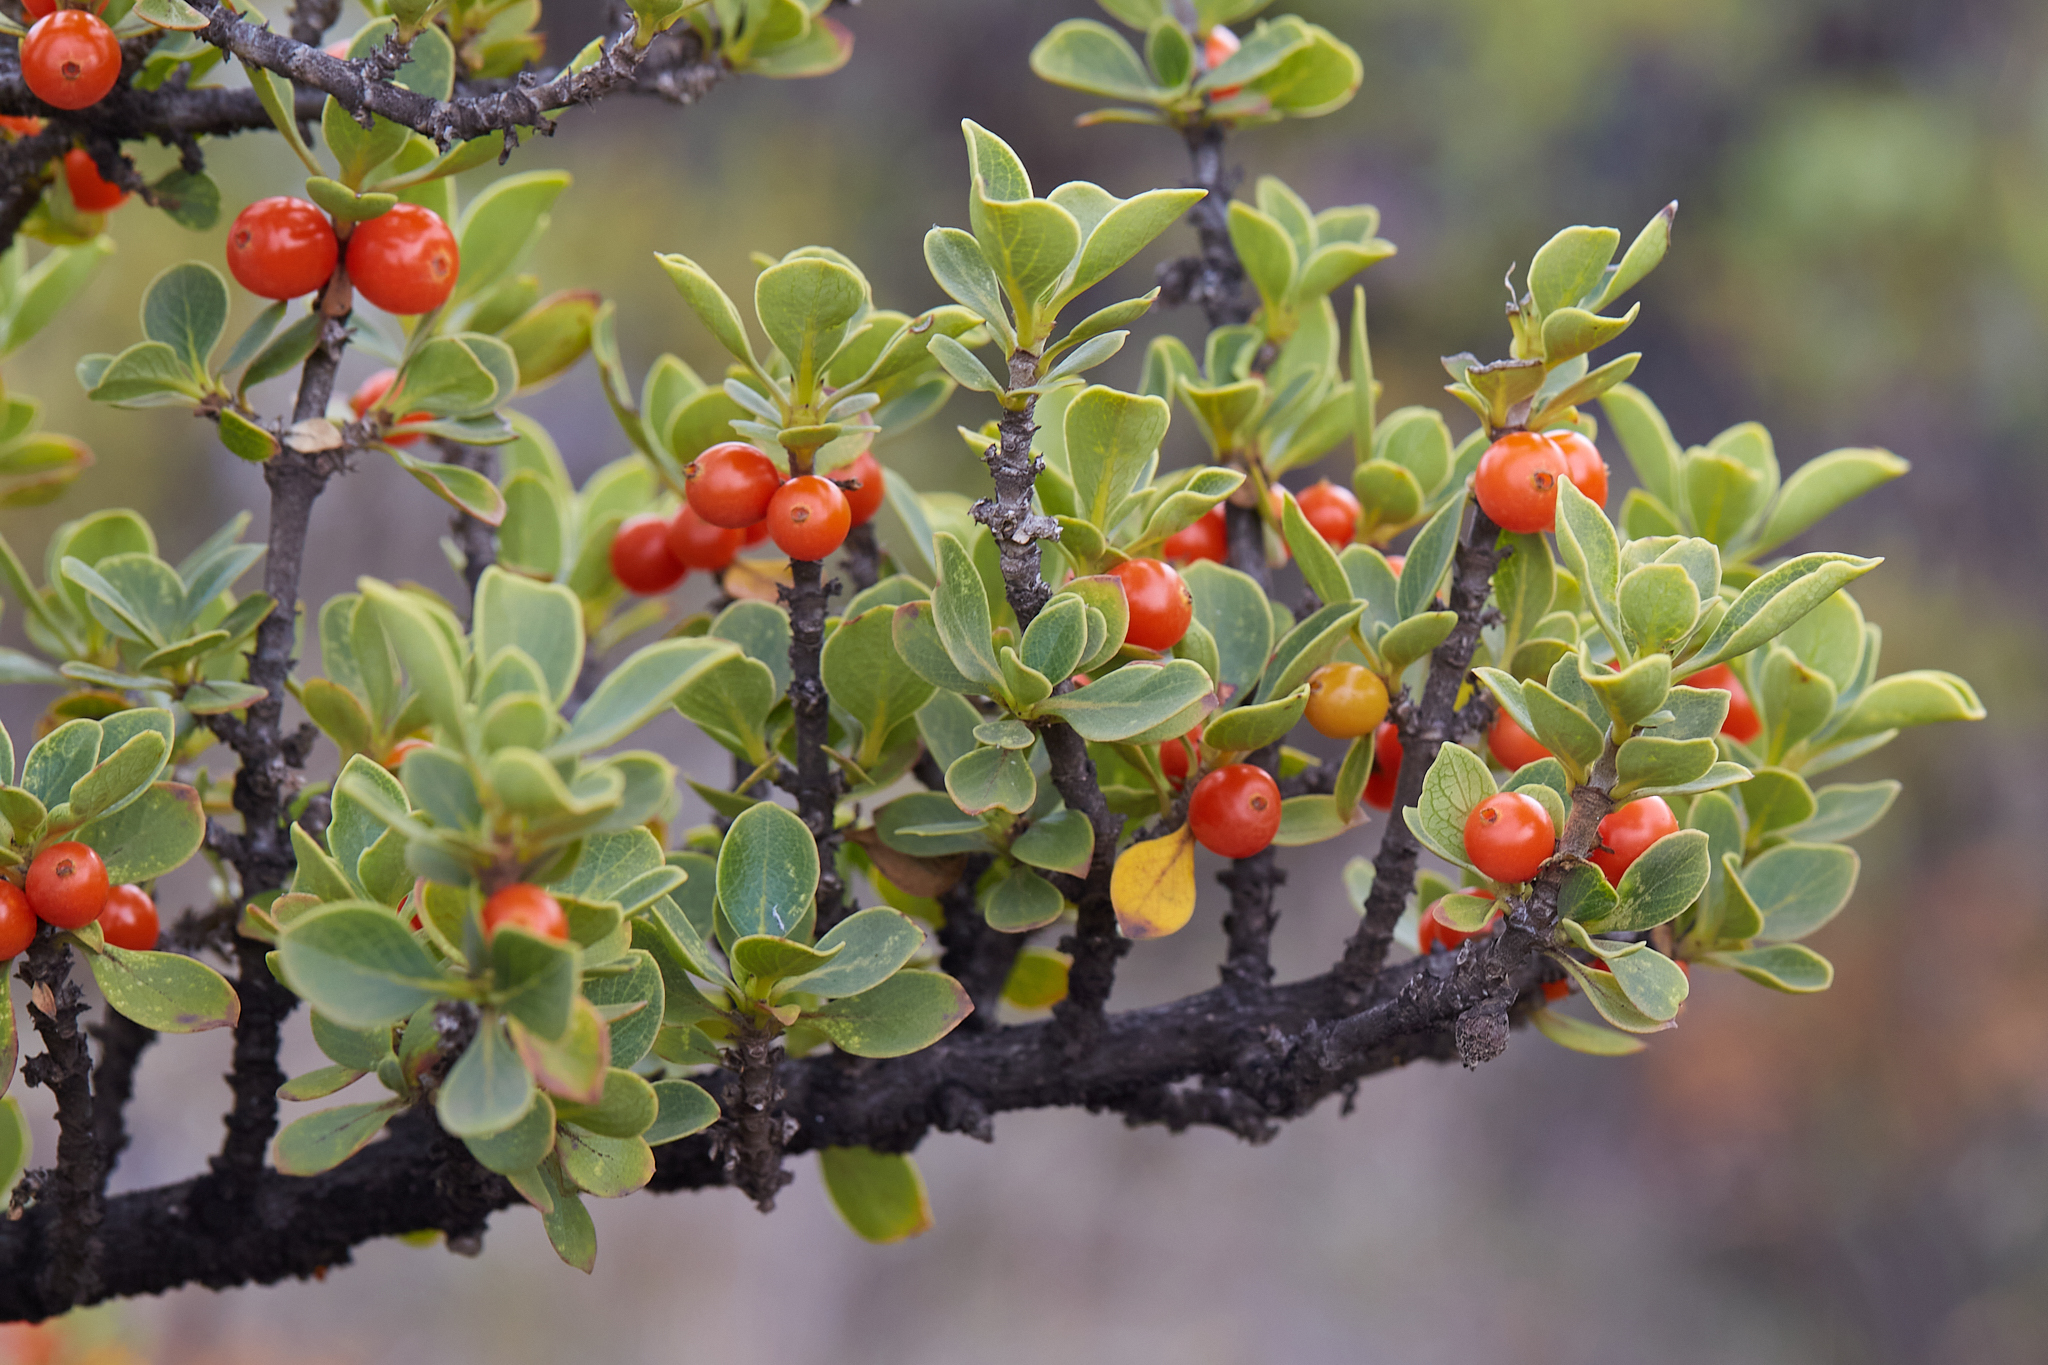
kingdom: Plantae
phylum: Tracheophyta
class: Magnoliopsida
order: Gentianales
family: Rubiaceae
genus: Coprosma
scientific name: Coprosma montana
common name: Alpine mirror plant
